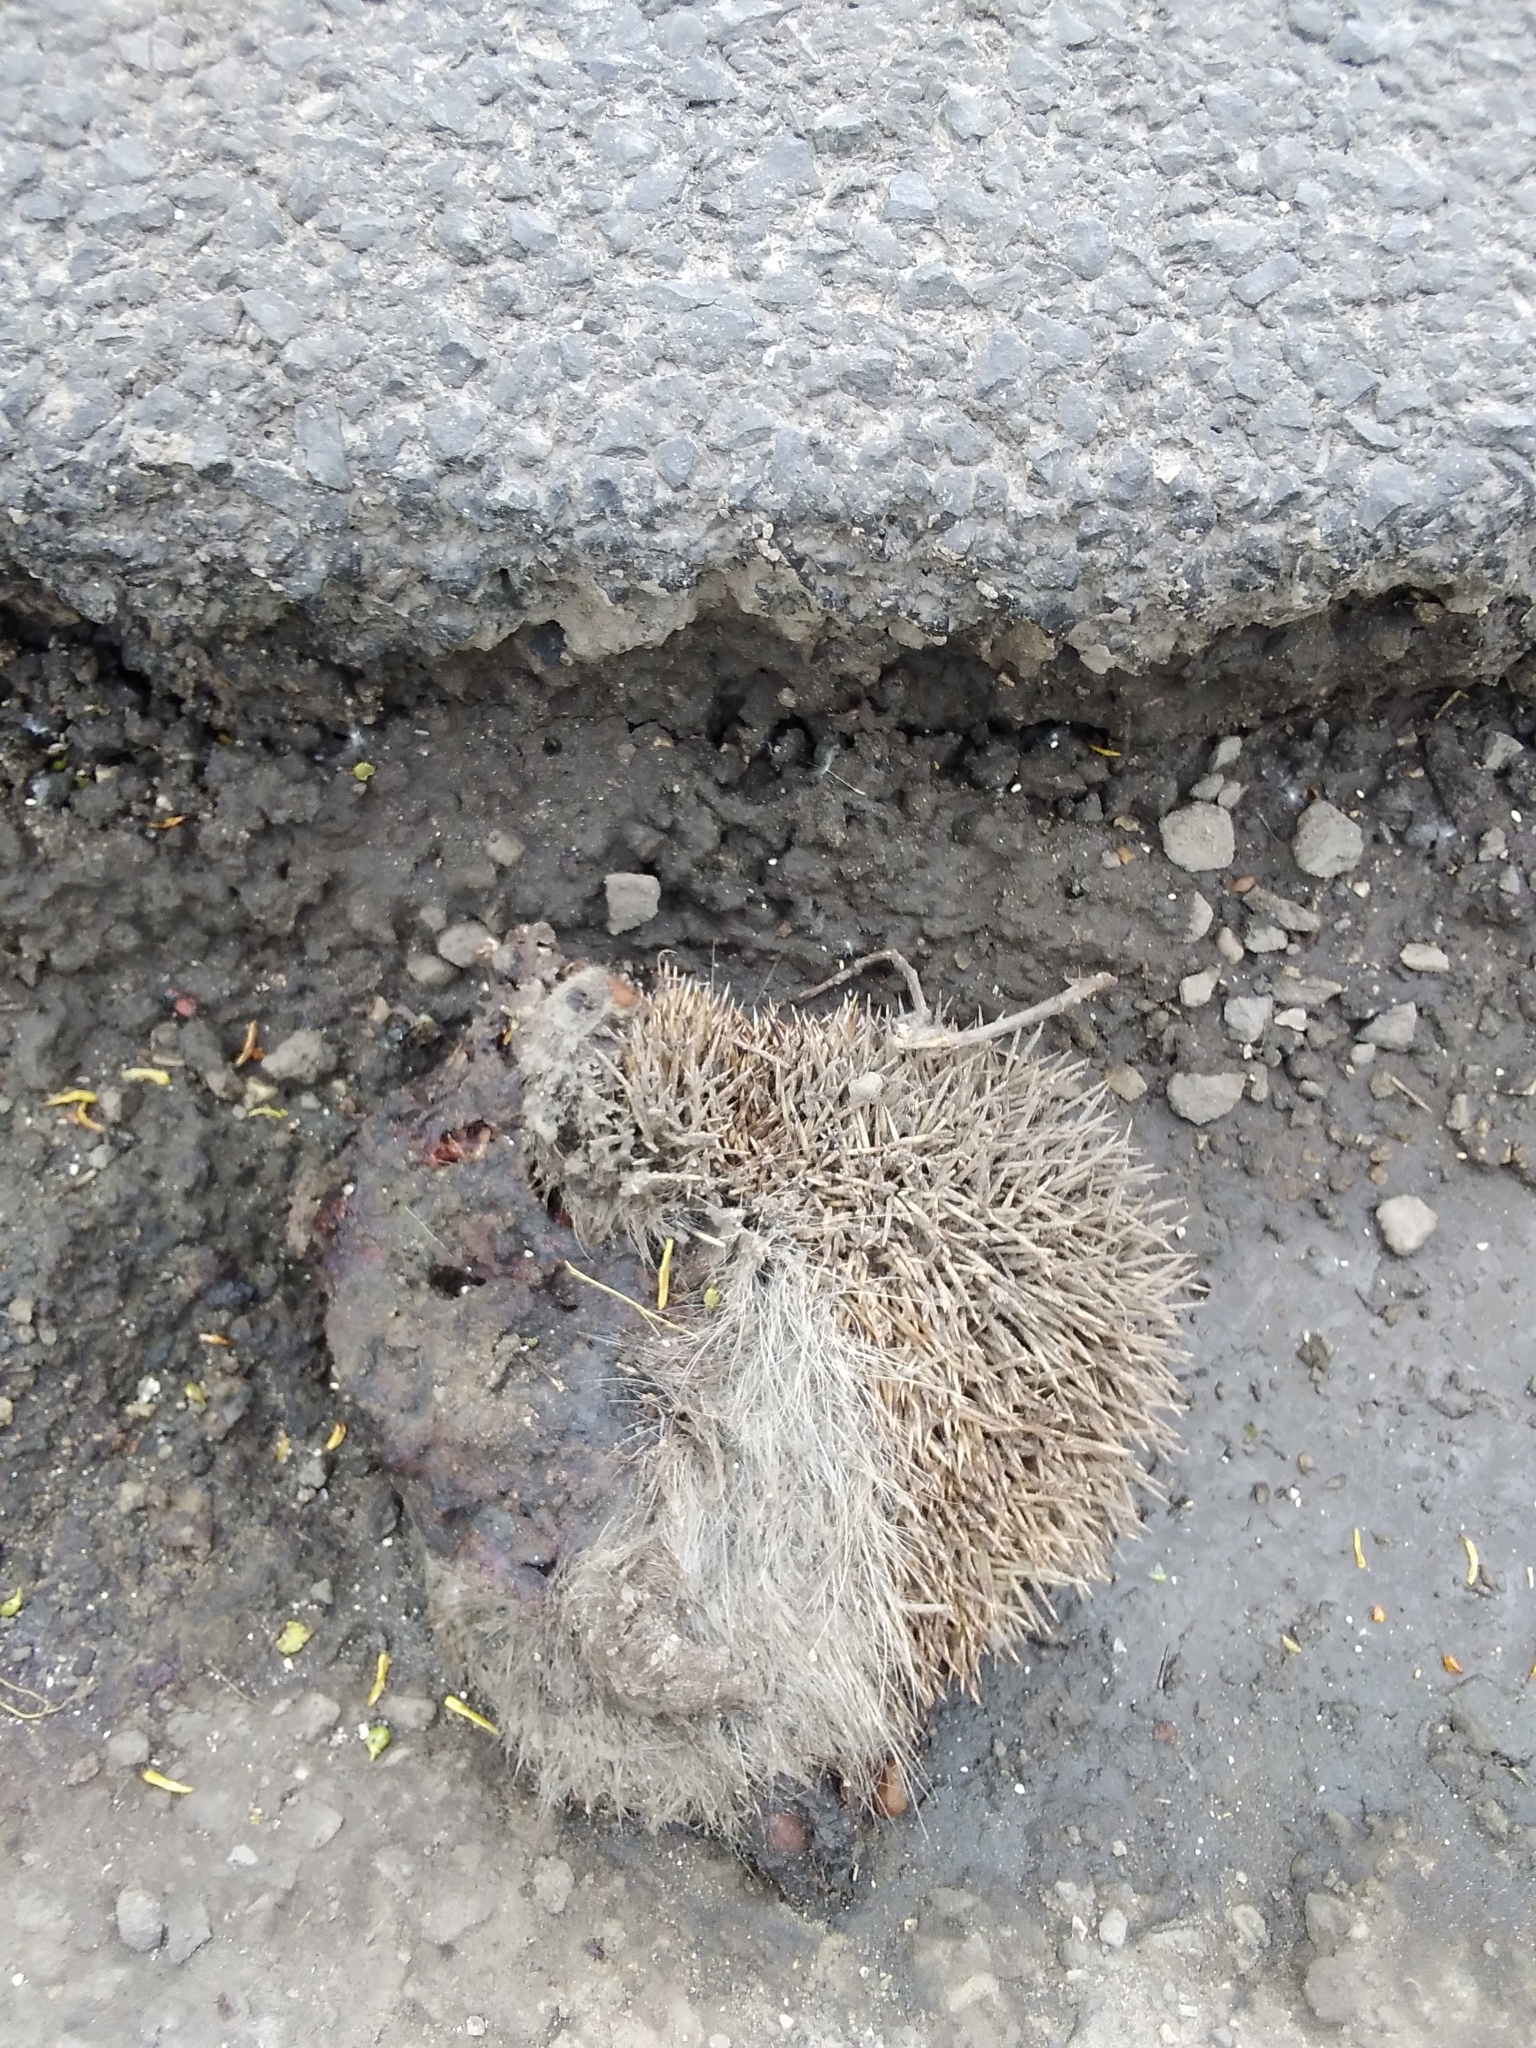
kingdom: Animalia
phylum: Chordata
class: Mammalia
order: Erinaceomorpha
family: Erinaceidae
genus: Erinaceus
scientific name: Erinaceus roumanicus
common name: Northern white-breasted hedgehog
